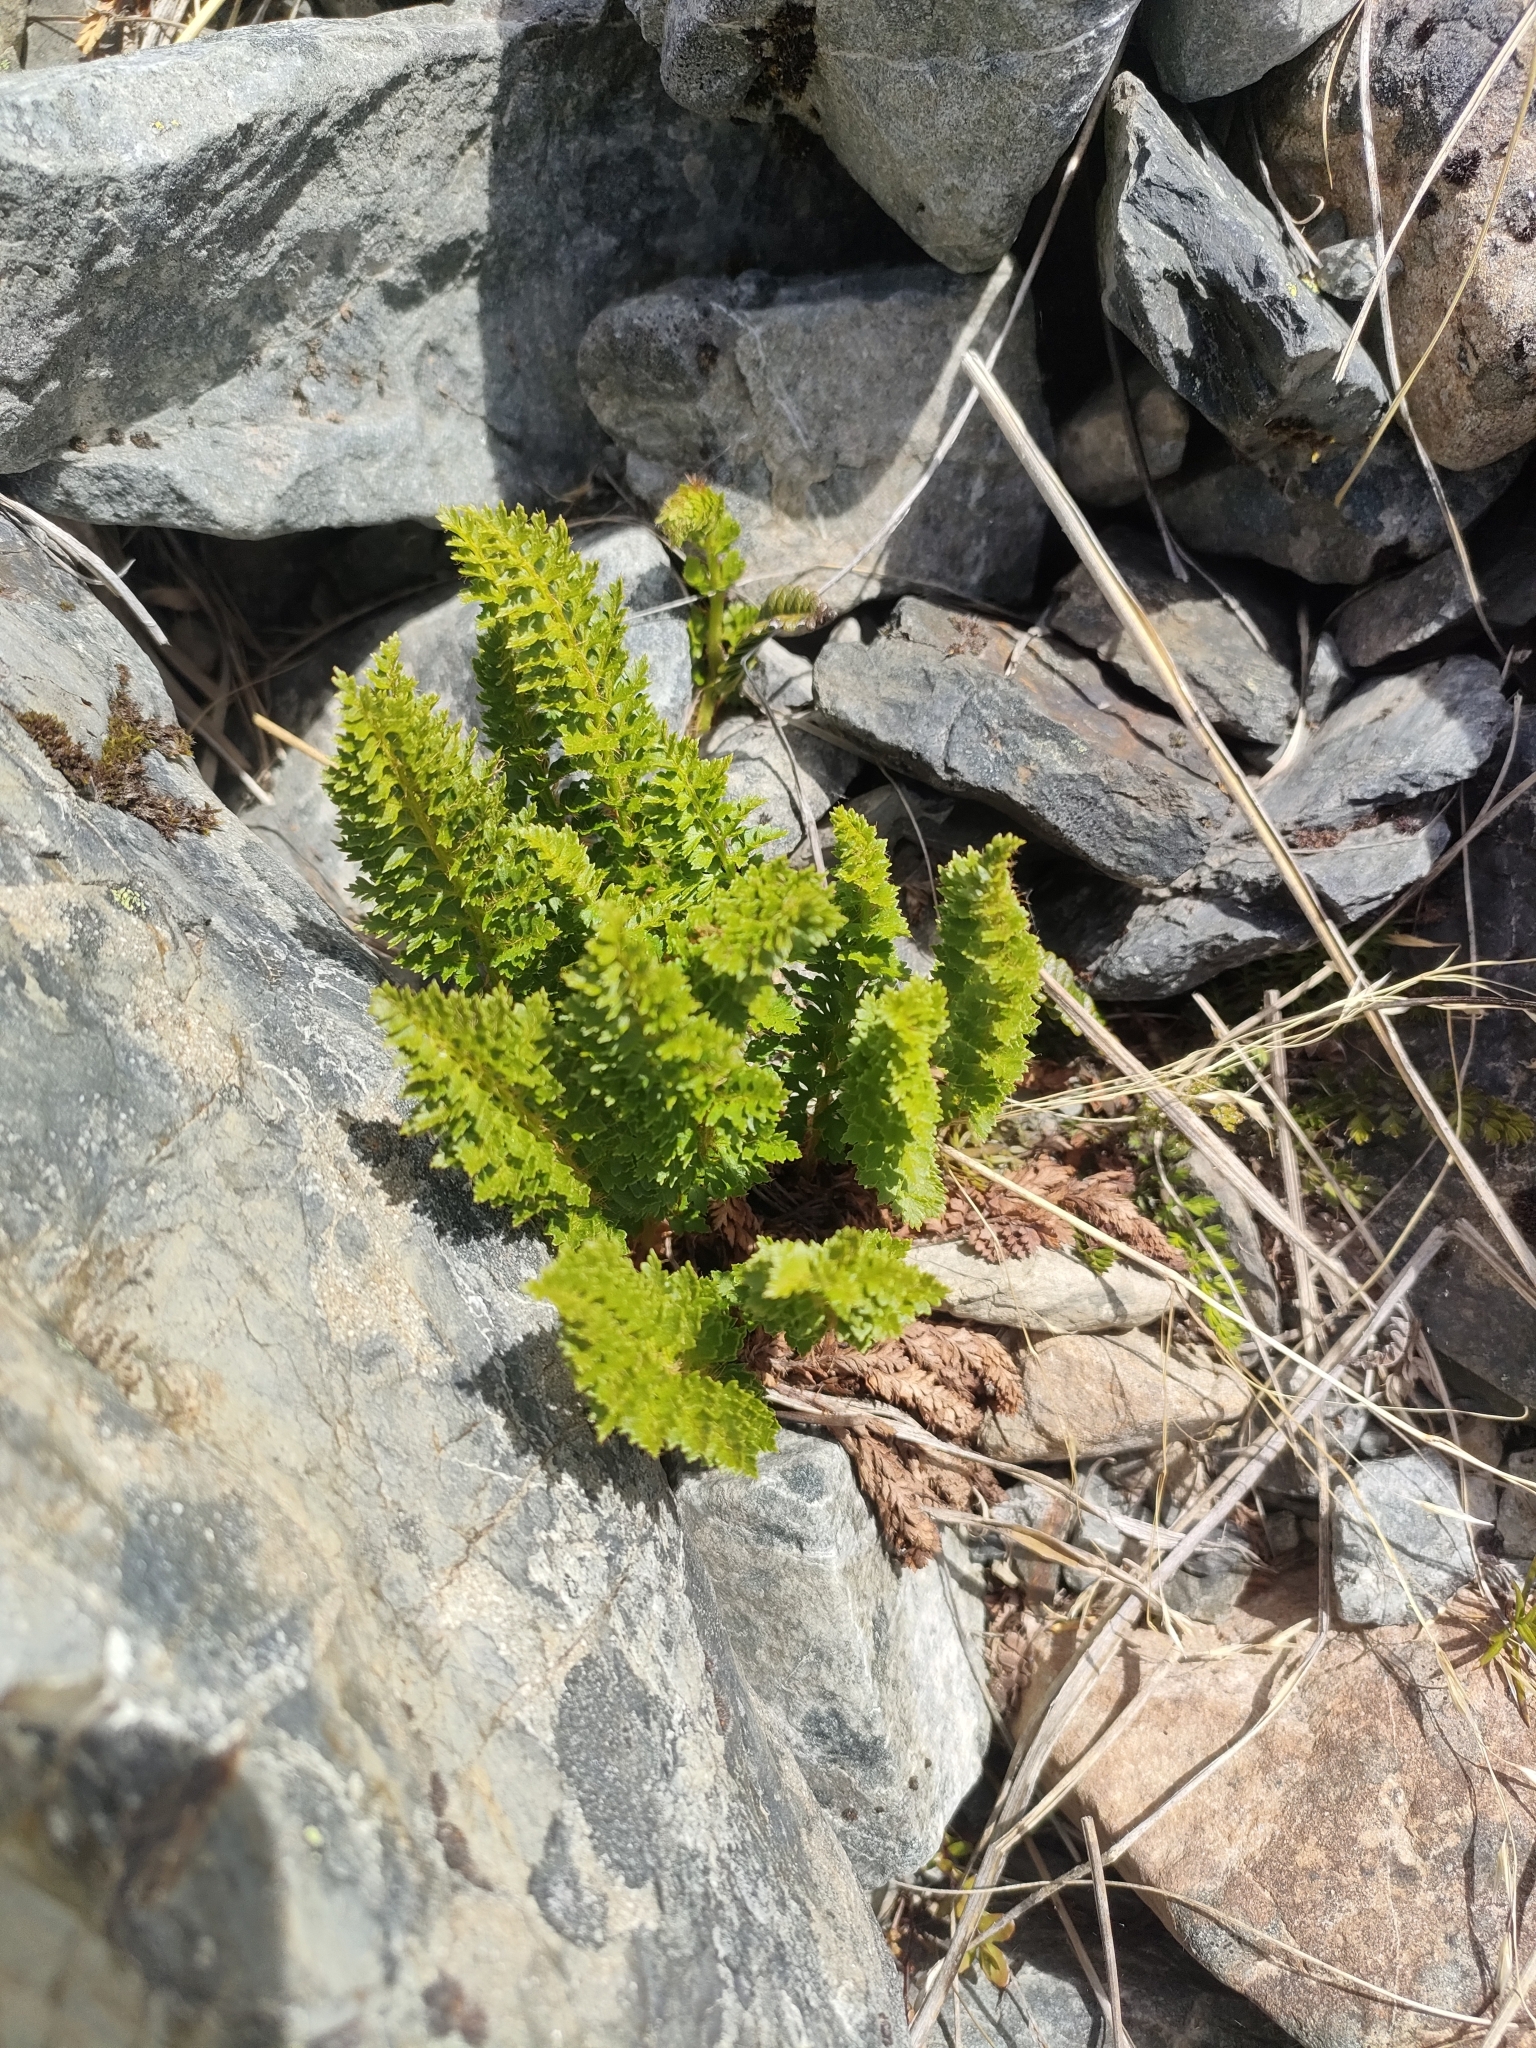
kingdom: Plantae
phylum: Tracheophyta
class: Polypodiopsida
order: Polypodiales
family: Dryopteridaceae
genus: Polystichum
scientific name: Polystichum cystostegia
